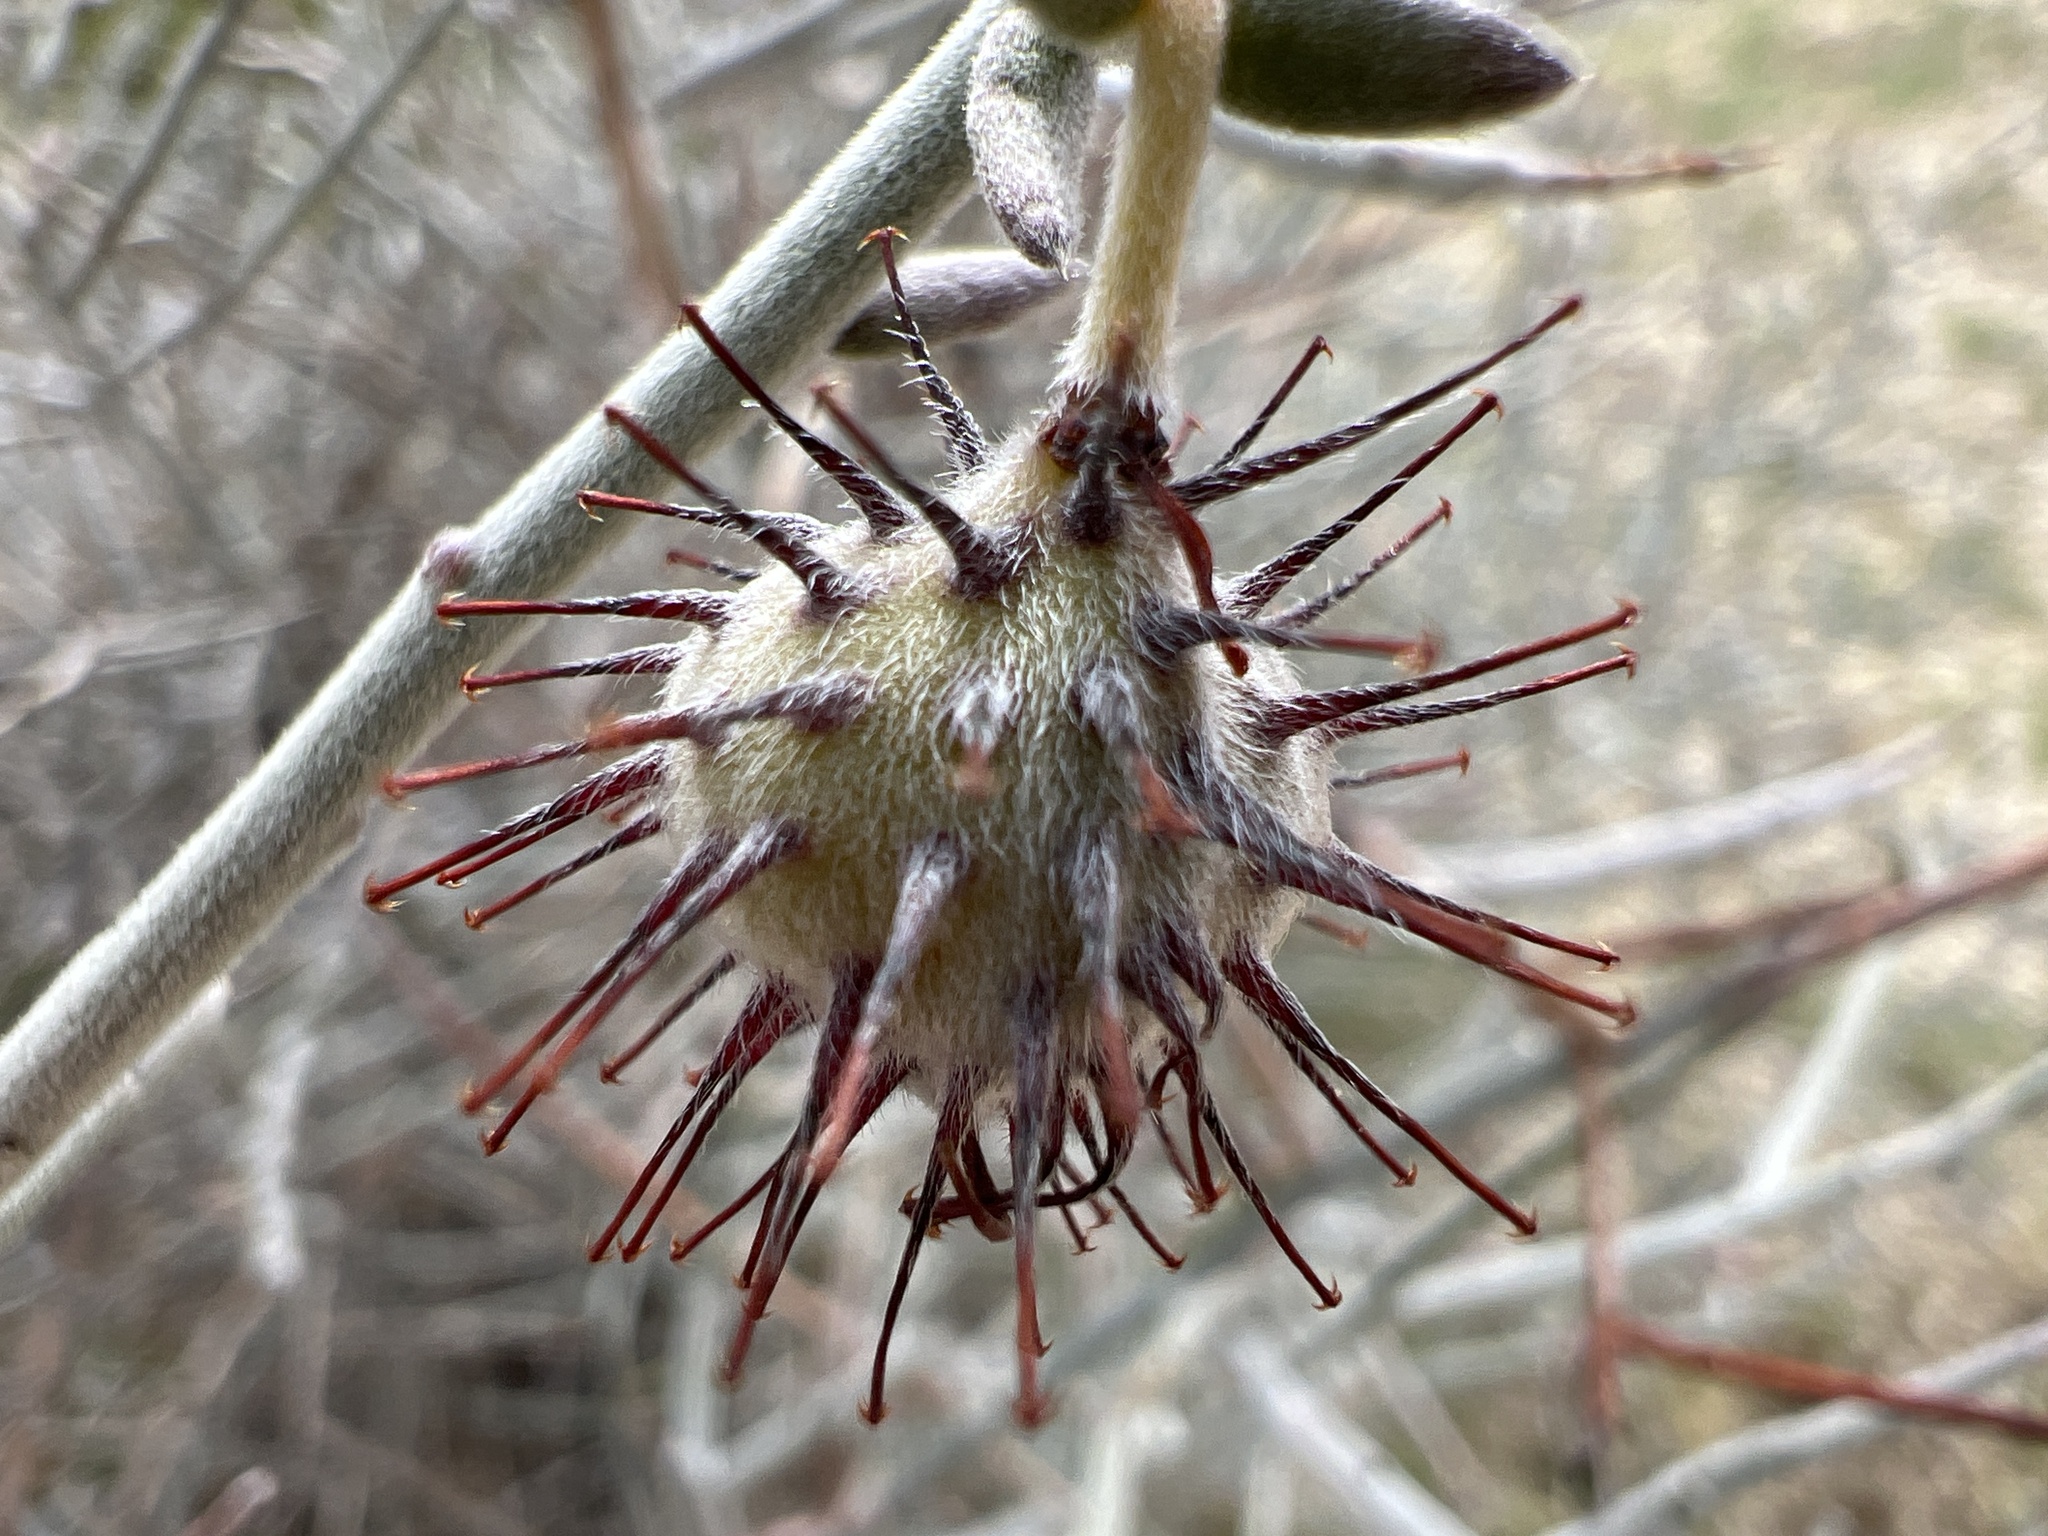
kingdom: Plantae
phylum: Tracheophyta
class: Magnoliopsida
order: Zygophyllales
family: Krameriaceae
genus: Krameria
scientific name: Krameria bicolor
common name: White ratany
